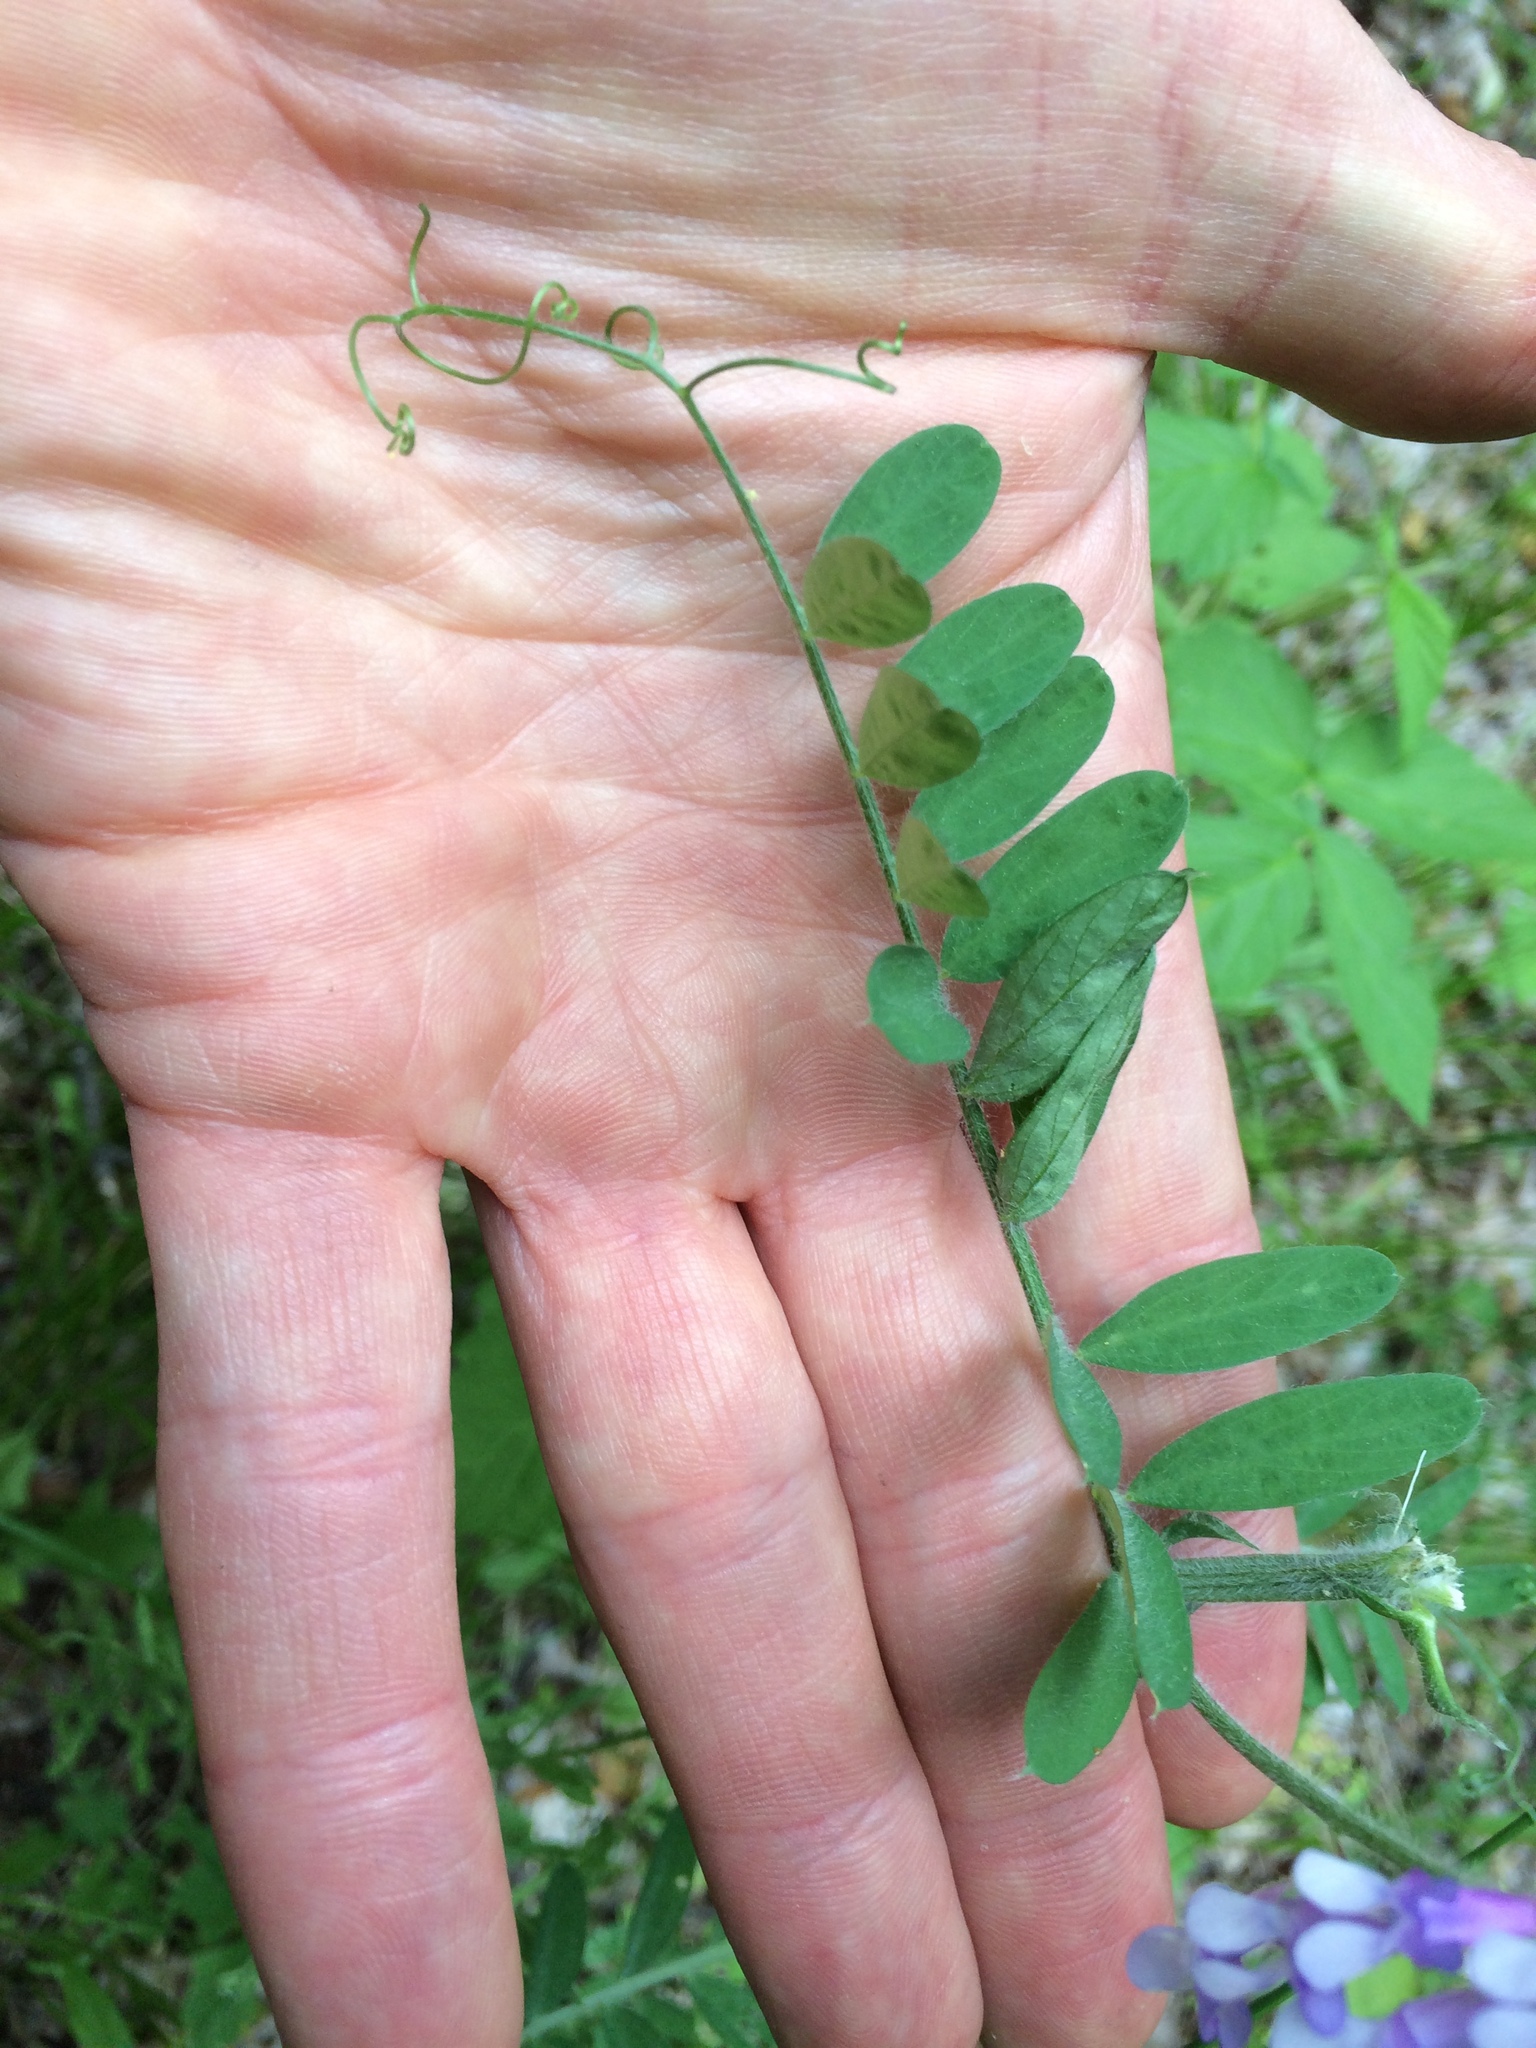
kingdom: Plantae
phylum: Tracheophyta
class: Magnoliopsida
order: Fabales
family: Fabaceae
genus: Vicia
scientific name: Vicia villosa
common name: Fodder vetch
